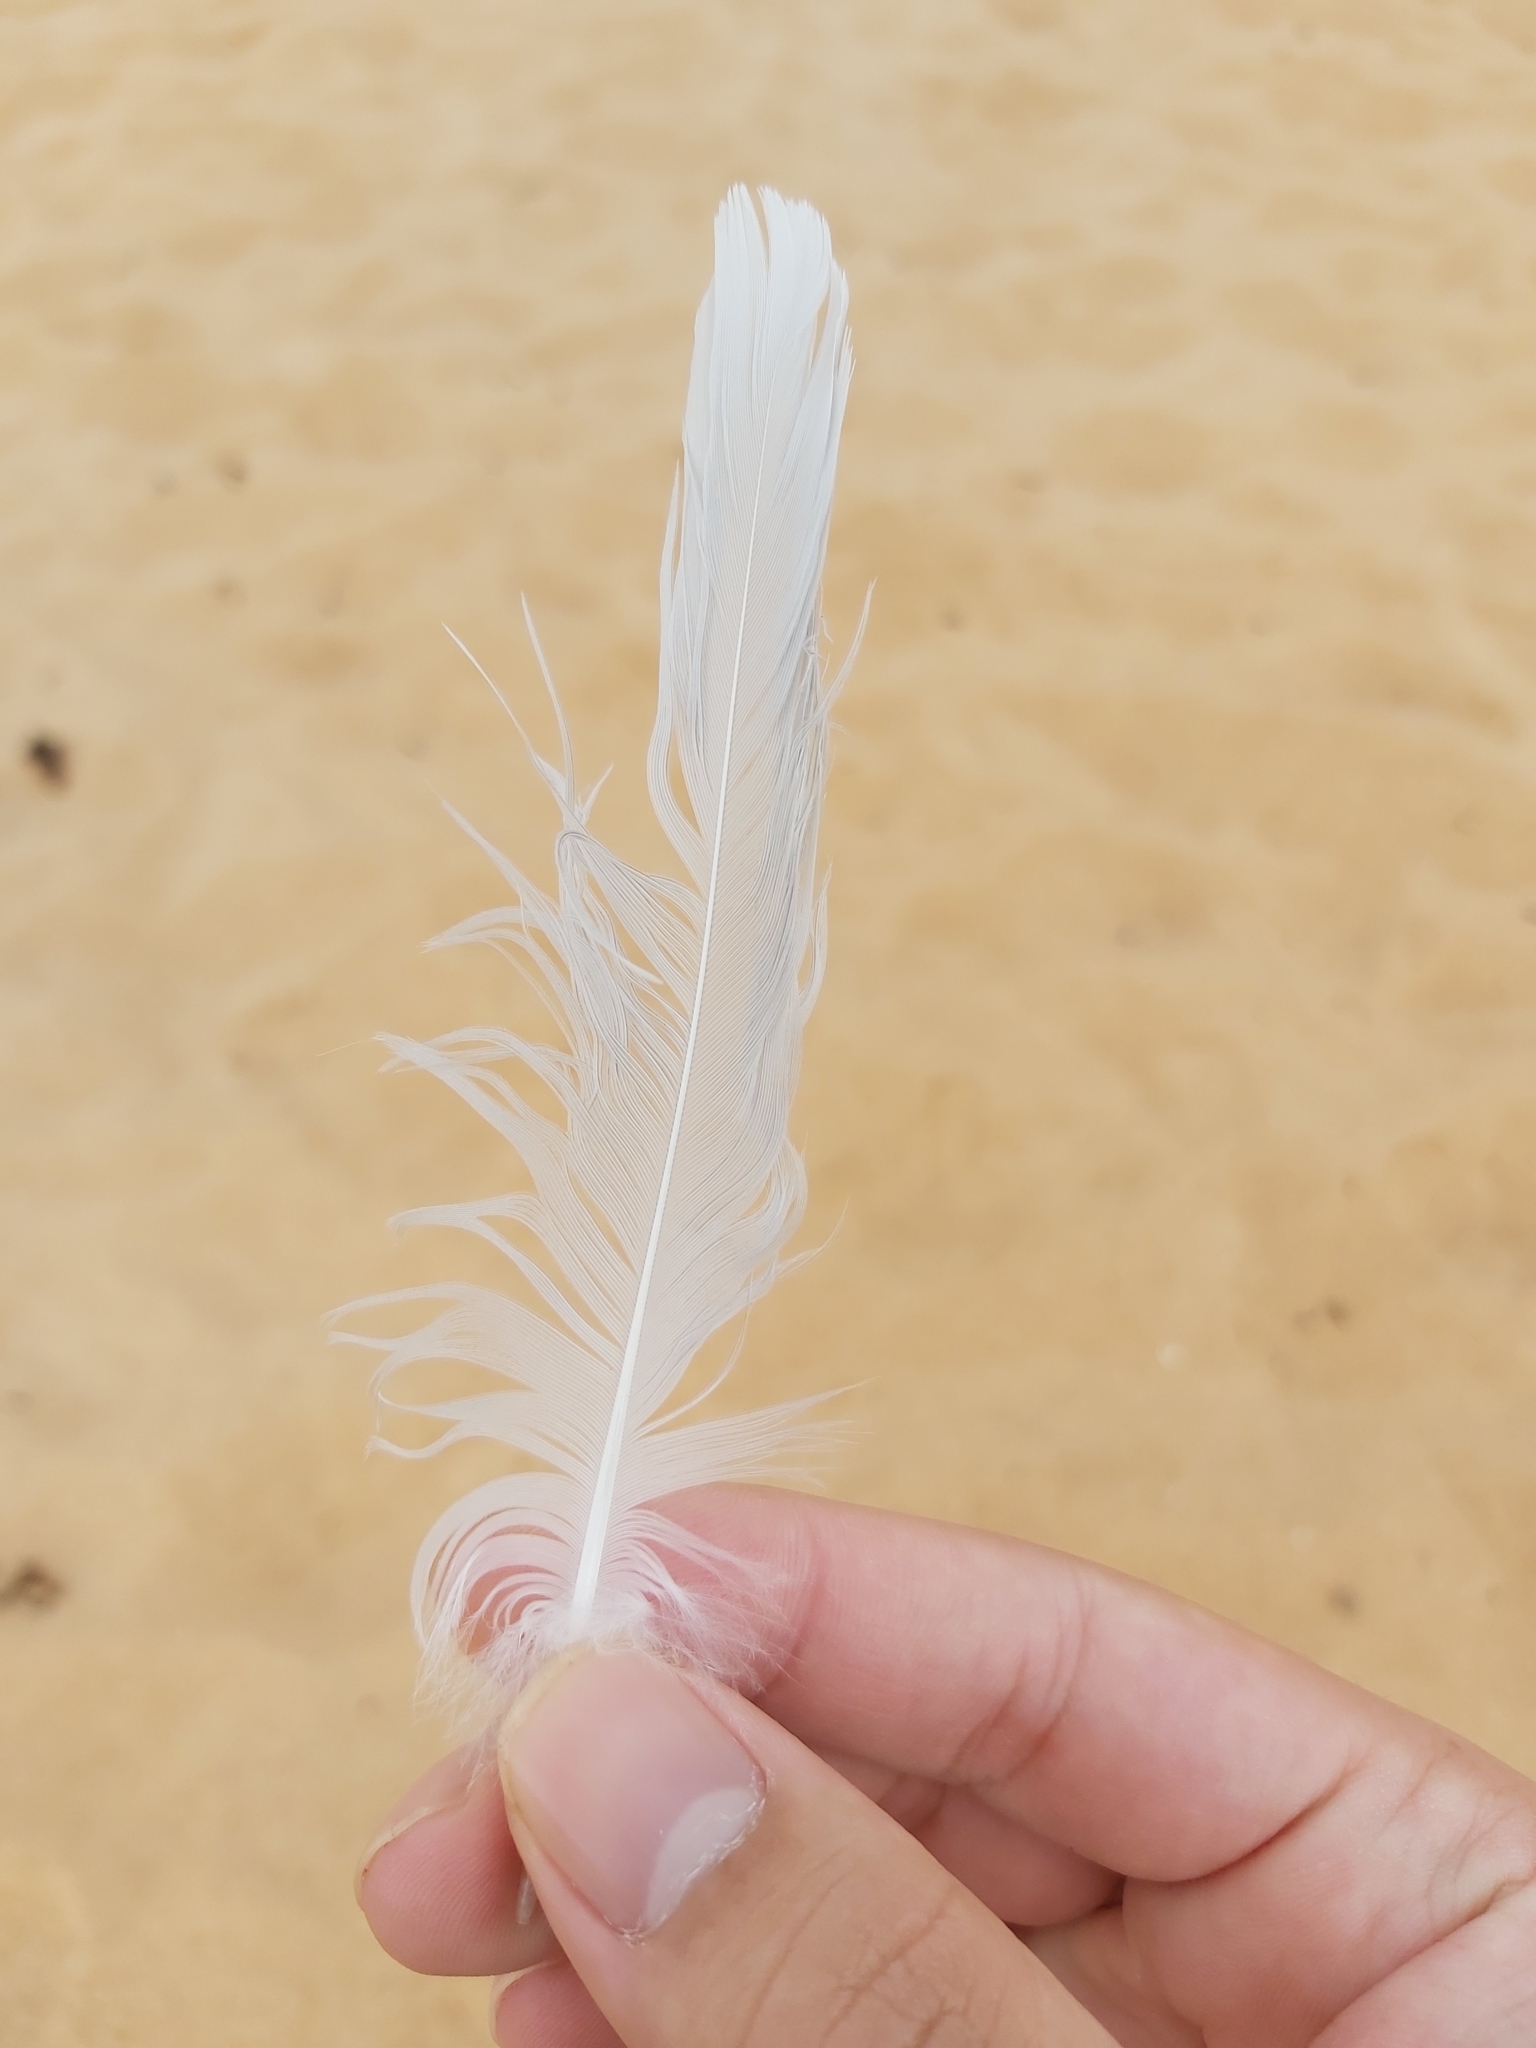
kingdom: Animalia
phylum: Chordata
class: Aves
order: Charadriiformes
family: Laridae
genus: Chroicocephalus
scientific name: Chroicocephalus novaehollandiae
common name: Silver gull
